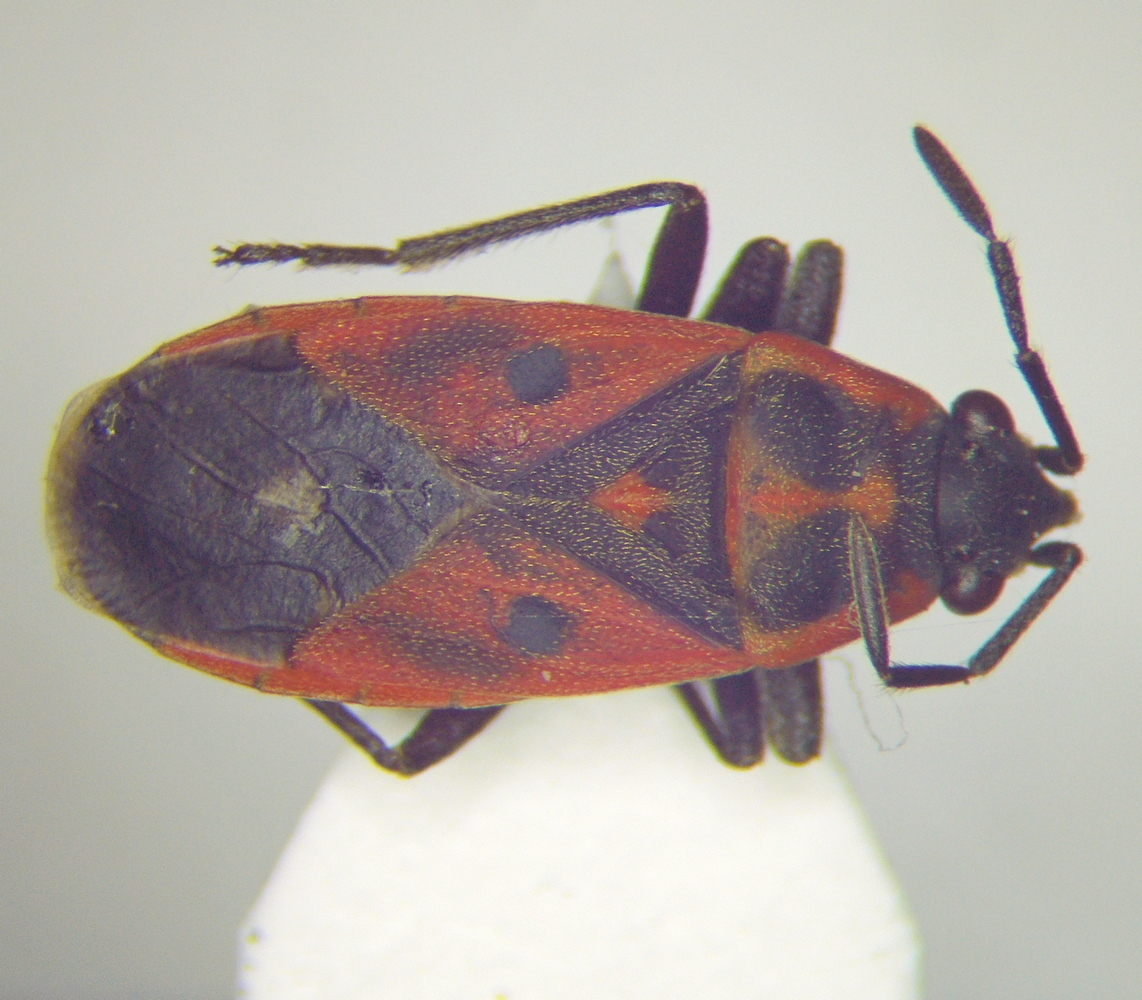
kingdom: Animalia
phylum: Arthropoda
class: Insecta
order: Hemiptera
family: Lygaeidae
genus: Melanocoryphus
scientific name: Melanocoryphus tristrami
